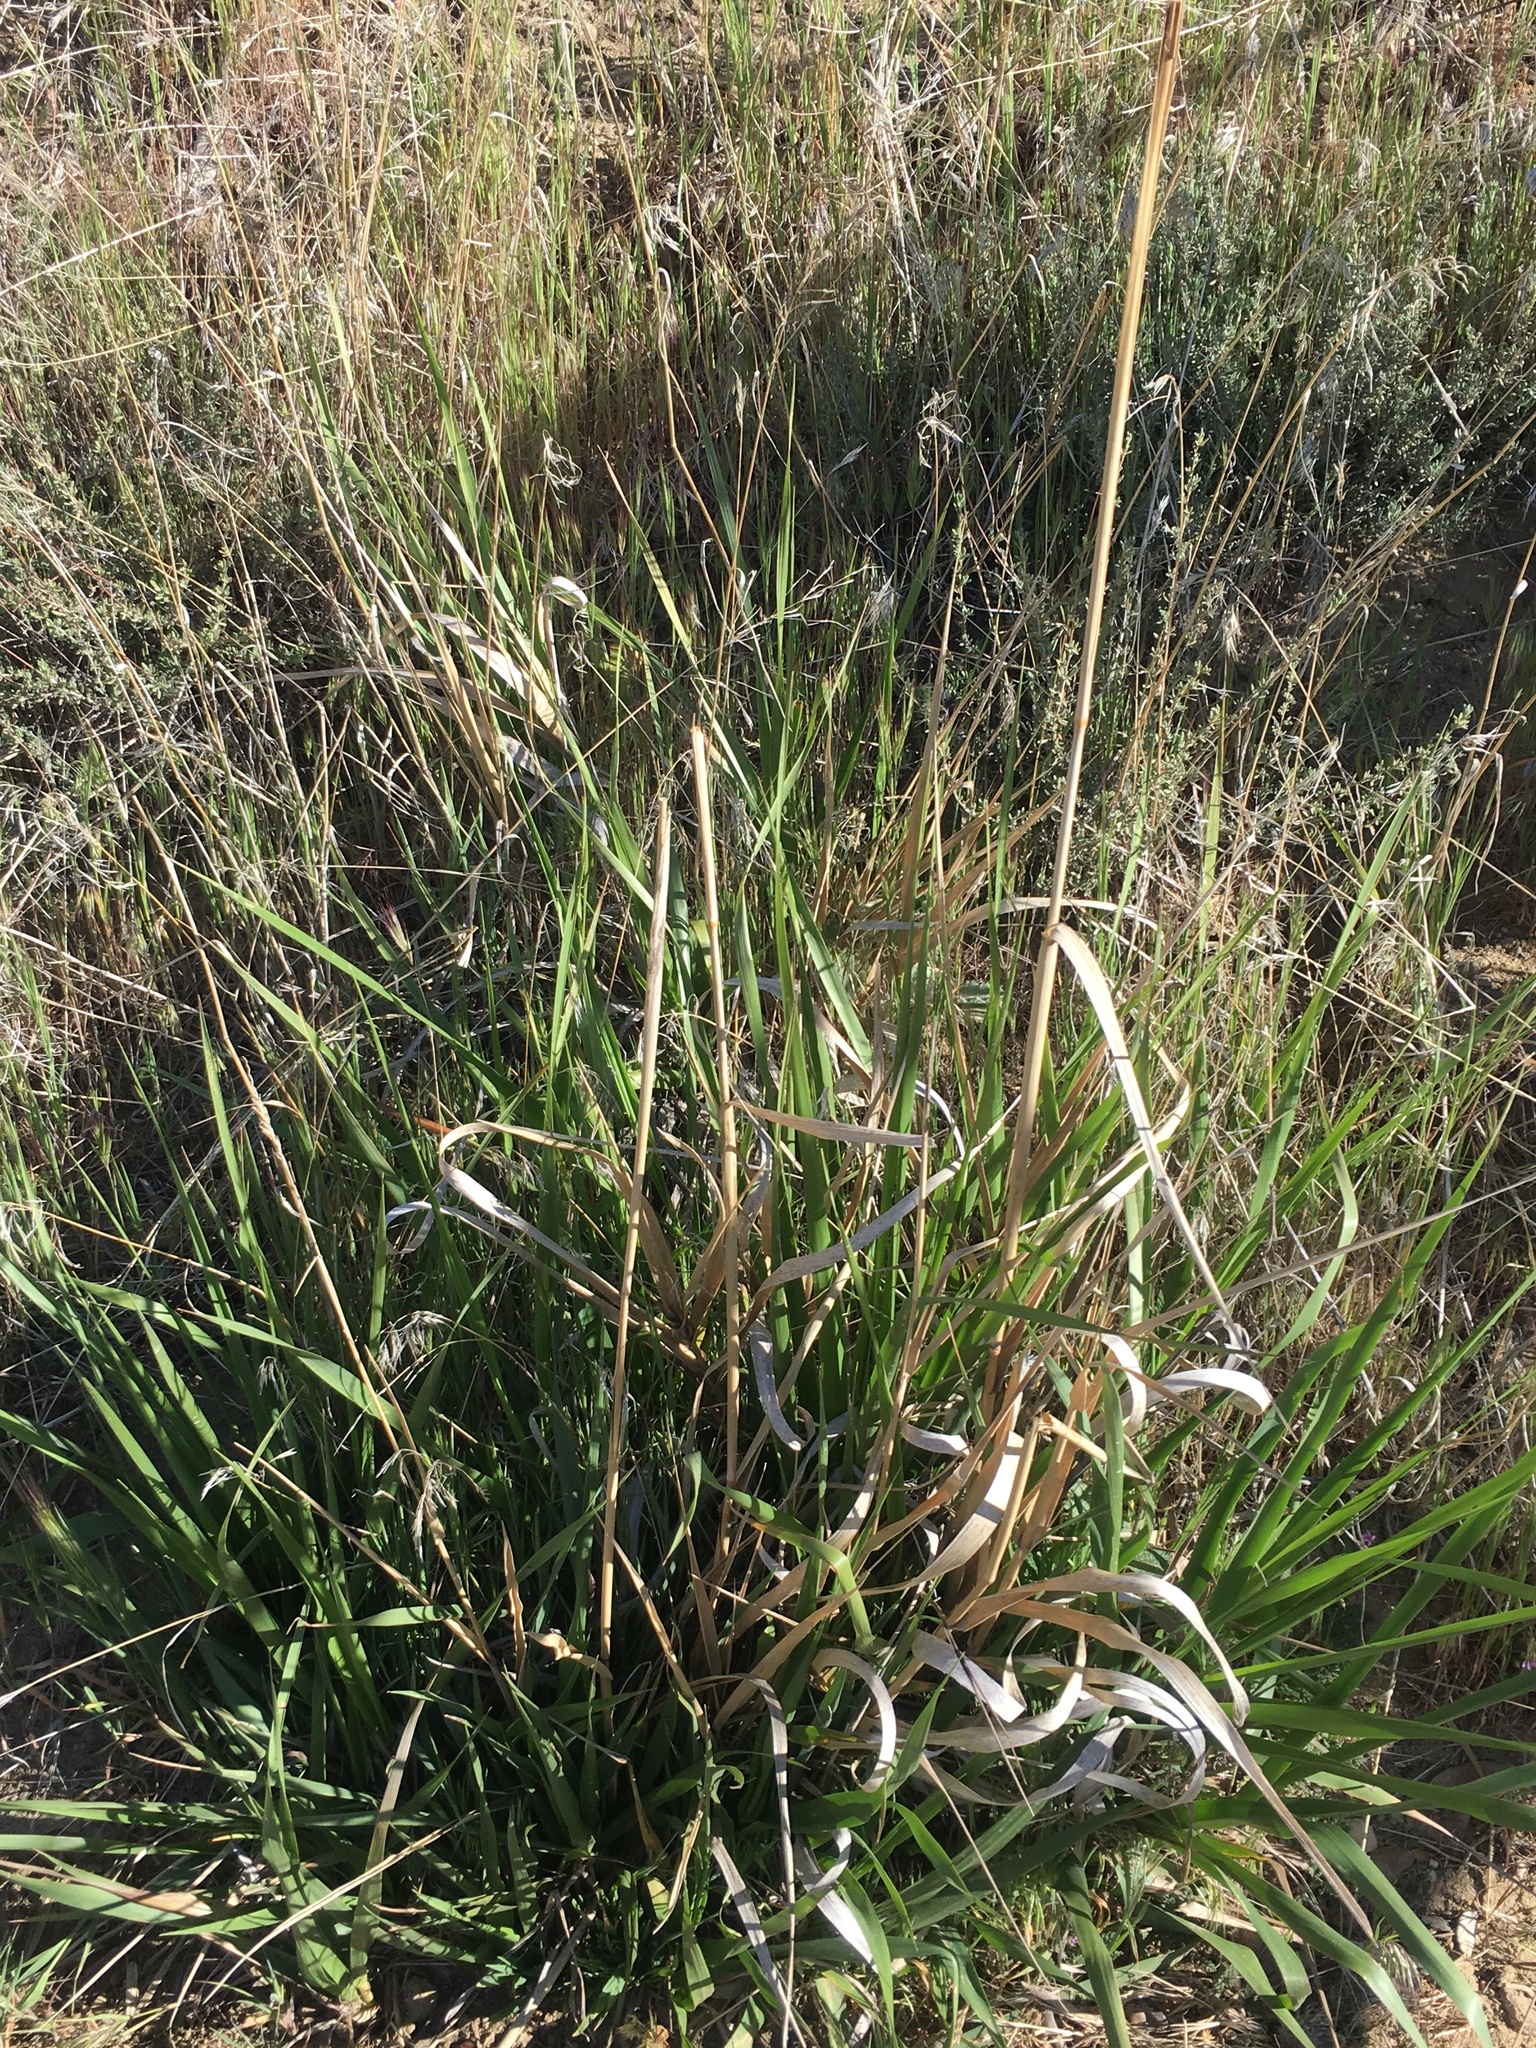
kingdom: Plantae
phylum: Tracheophyta
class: Liliopsida
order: Poales
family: Poaceae
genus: Leymus
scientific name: Leymus condensatus
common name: Giant wild rye
